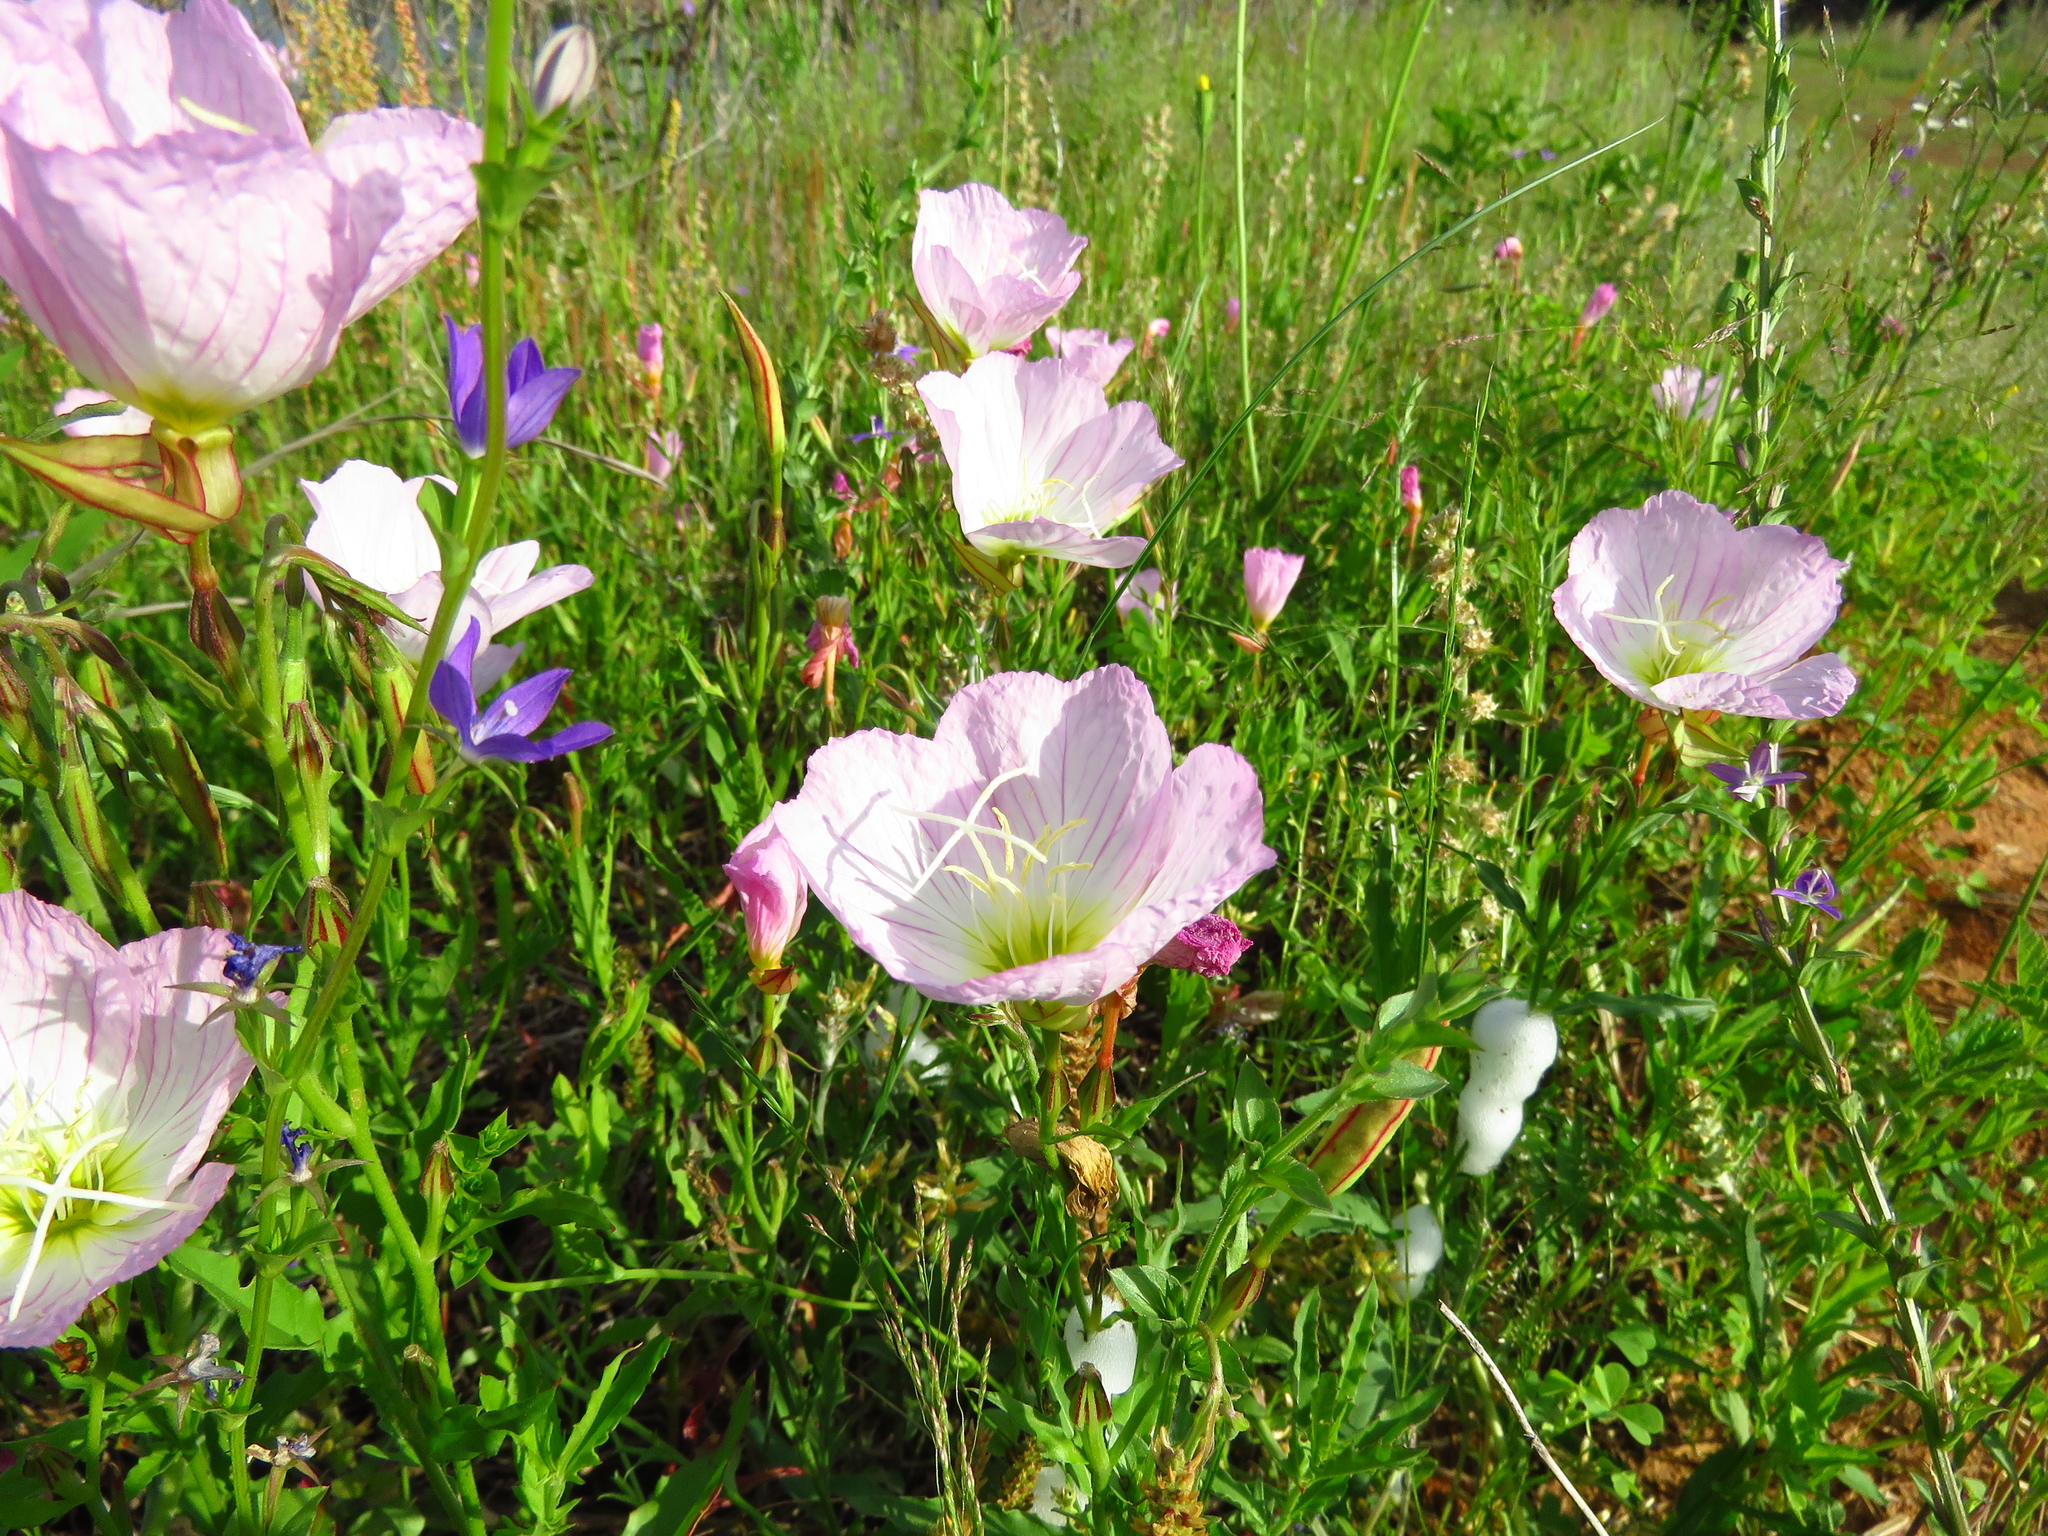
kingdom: Plantae
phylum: Tracheophyta
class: Magnoliopsida
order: Myrtales
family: Onagraceae
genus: Oenothera
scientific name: Oenothera speciosa
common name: White evening-primrose
